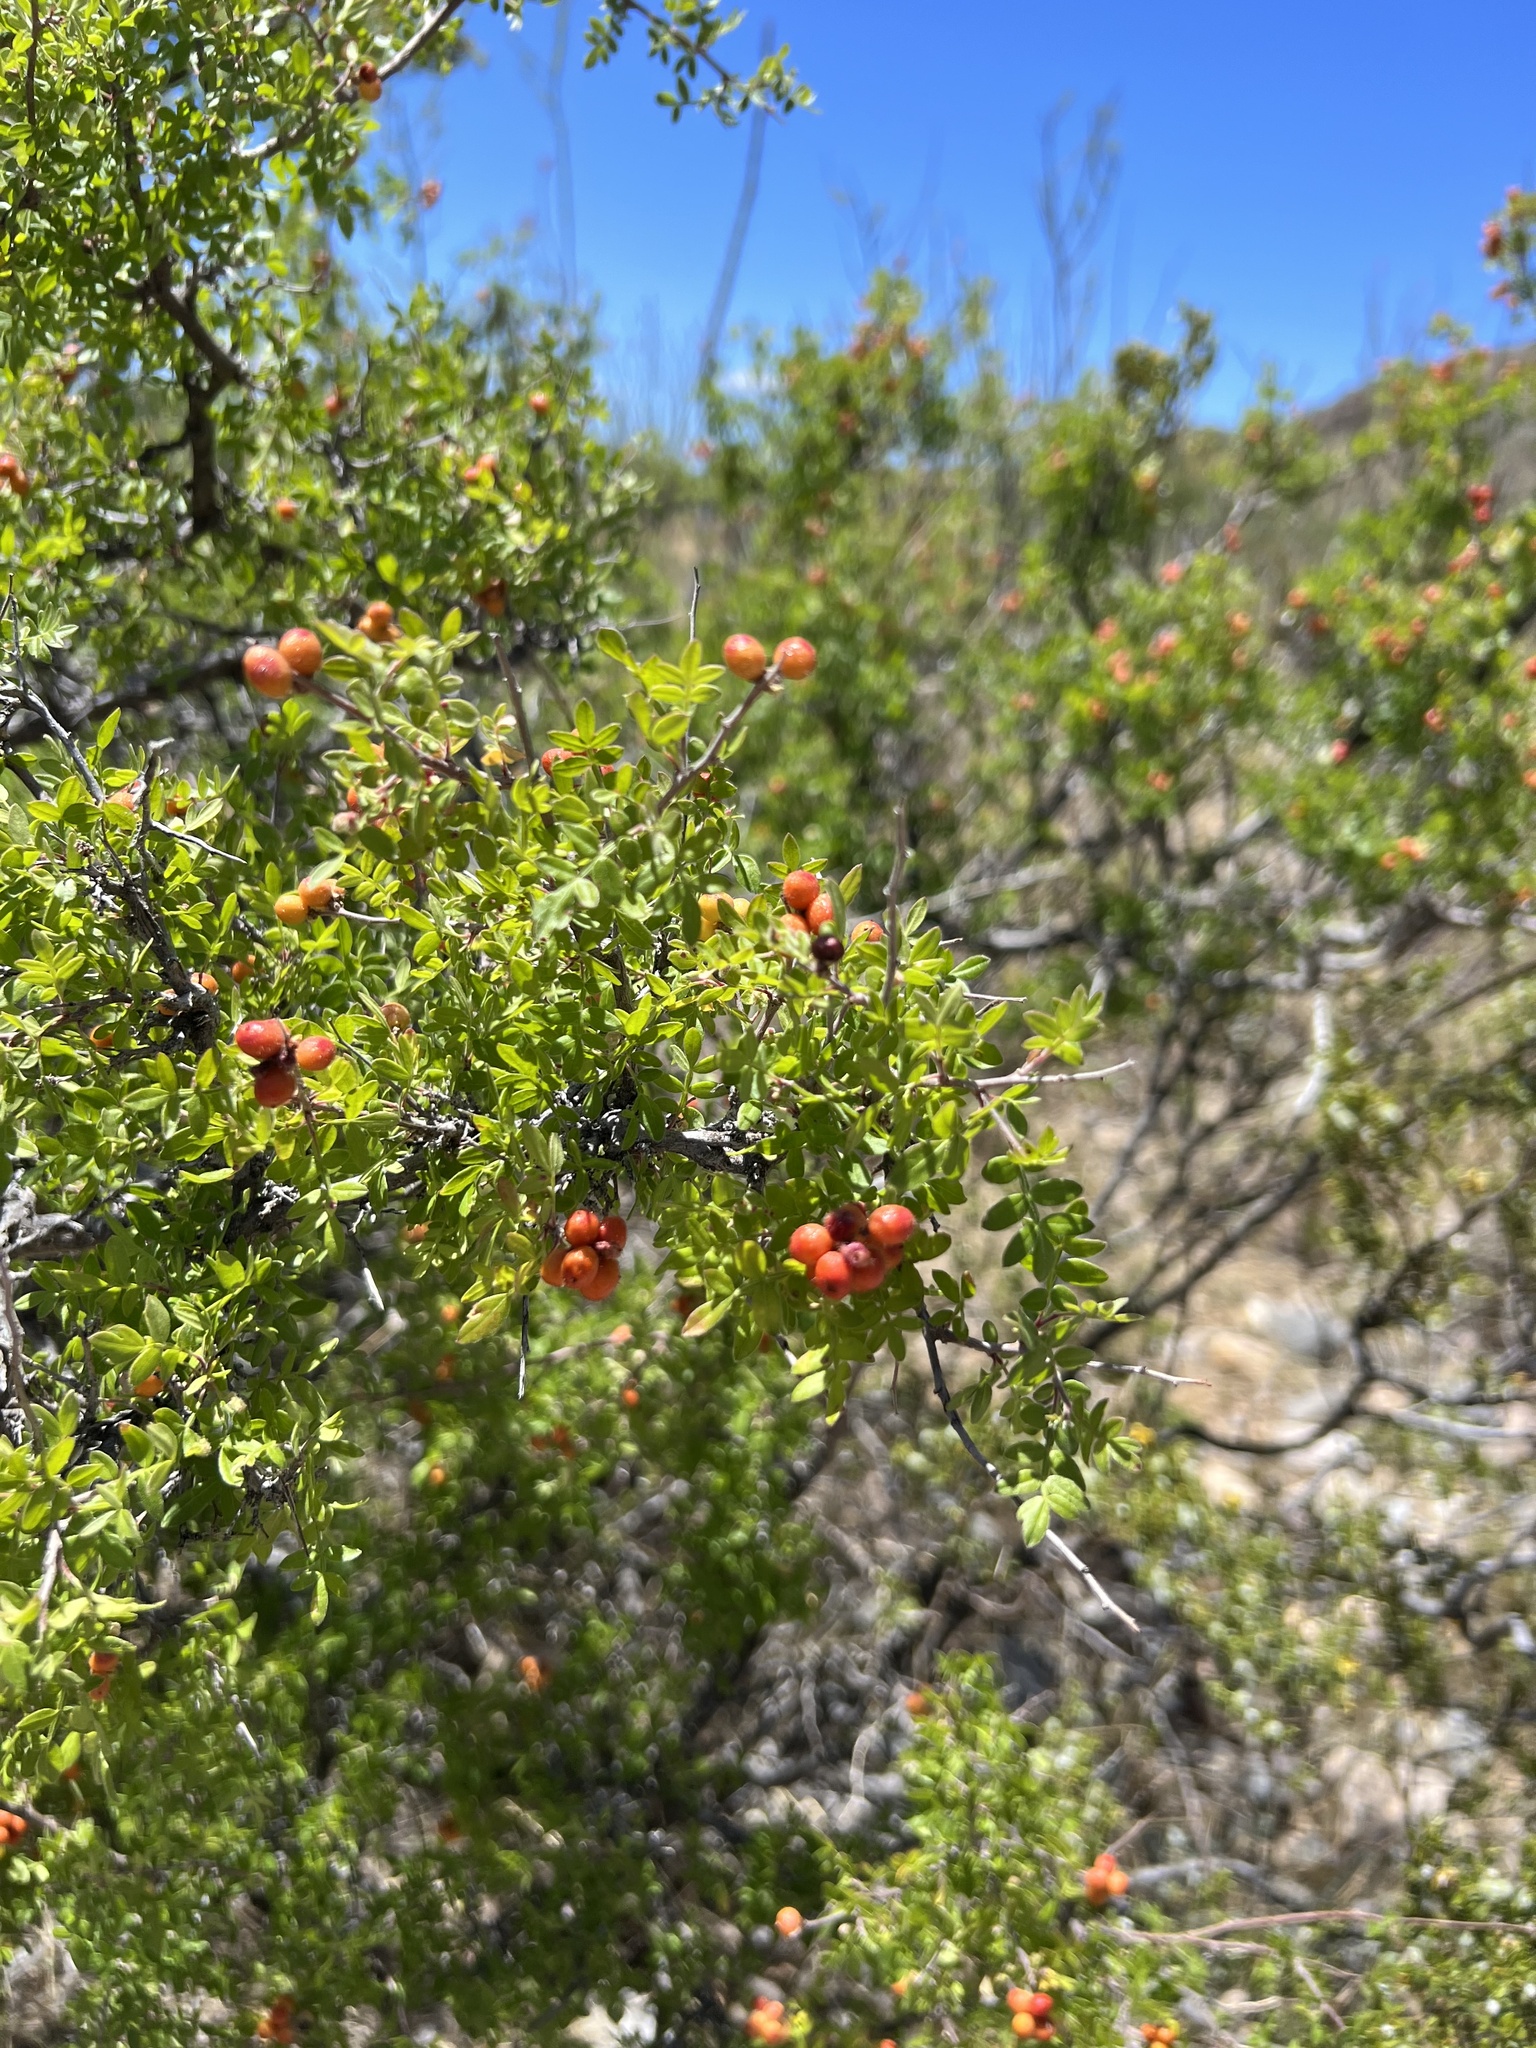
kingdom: Plantae
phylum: Tracheophyta
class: Magnoliopsida
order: Sapindales
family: Anacardiaceae
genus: Rhus
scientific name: Rhus microphylla
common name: Desert sumac
